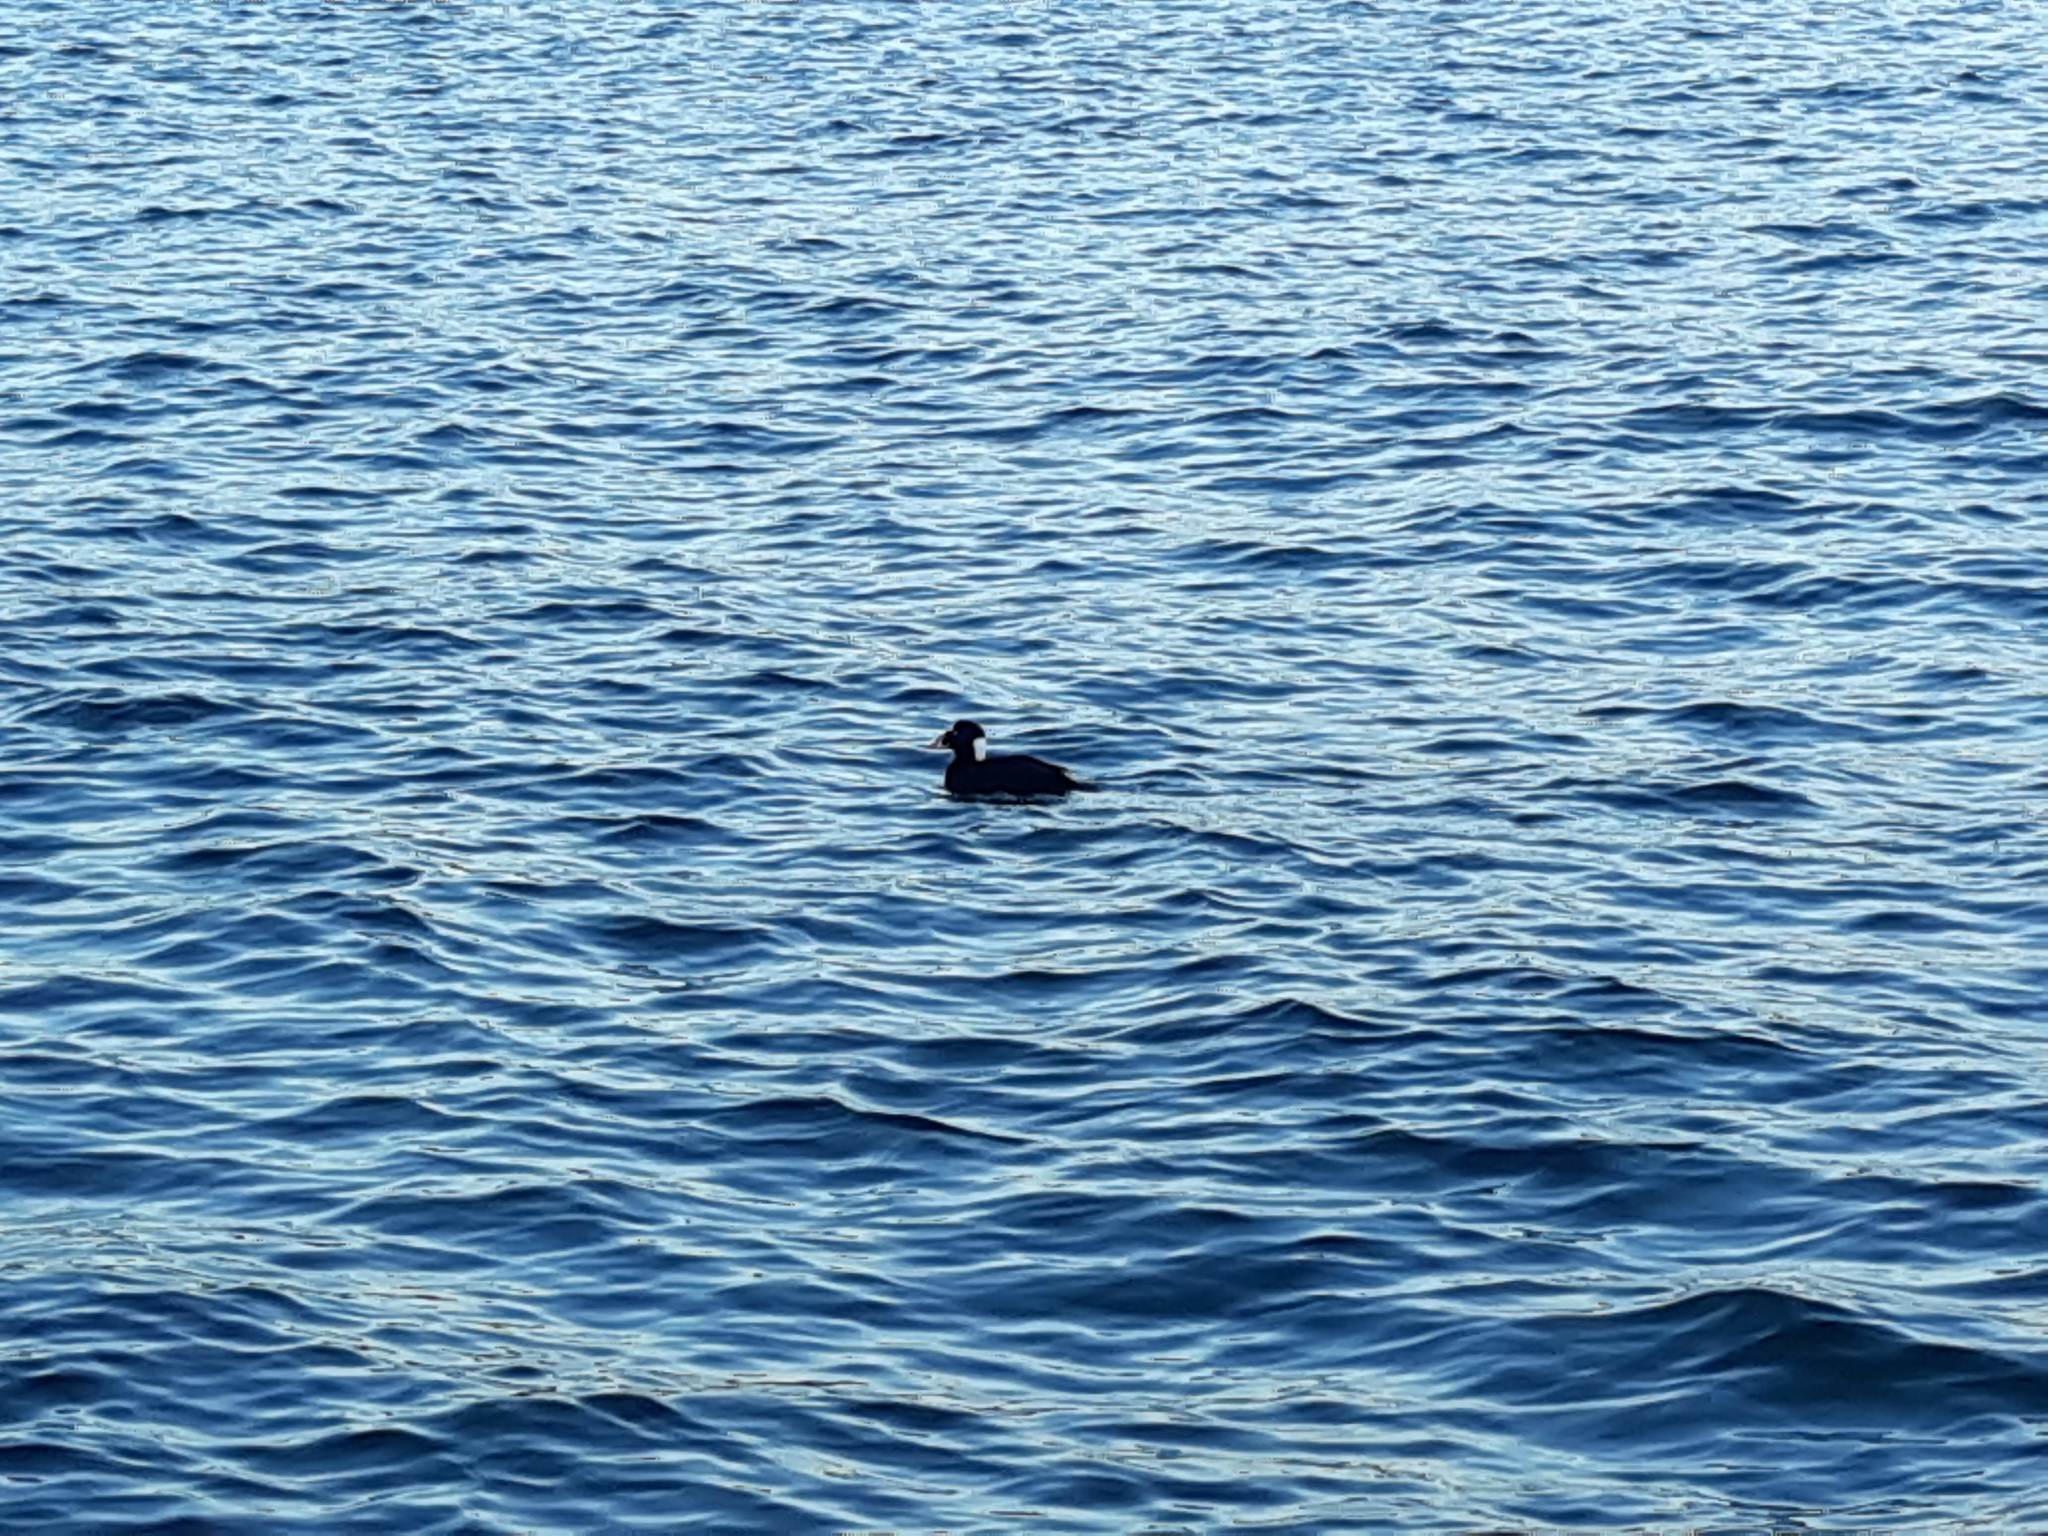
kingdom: Animalia
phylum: Chordata
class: Aves
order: Anseriformes
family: Anatidae
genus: Melanitta
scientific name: Melanitta perspicillata
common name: Surf scoter
